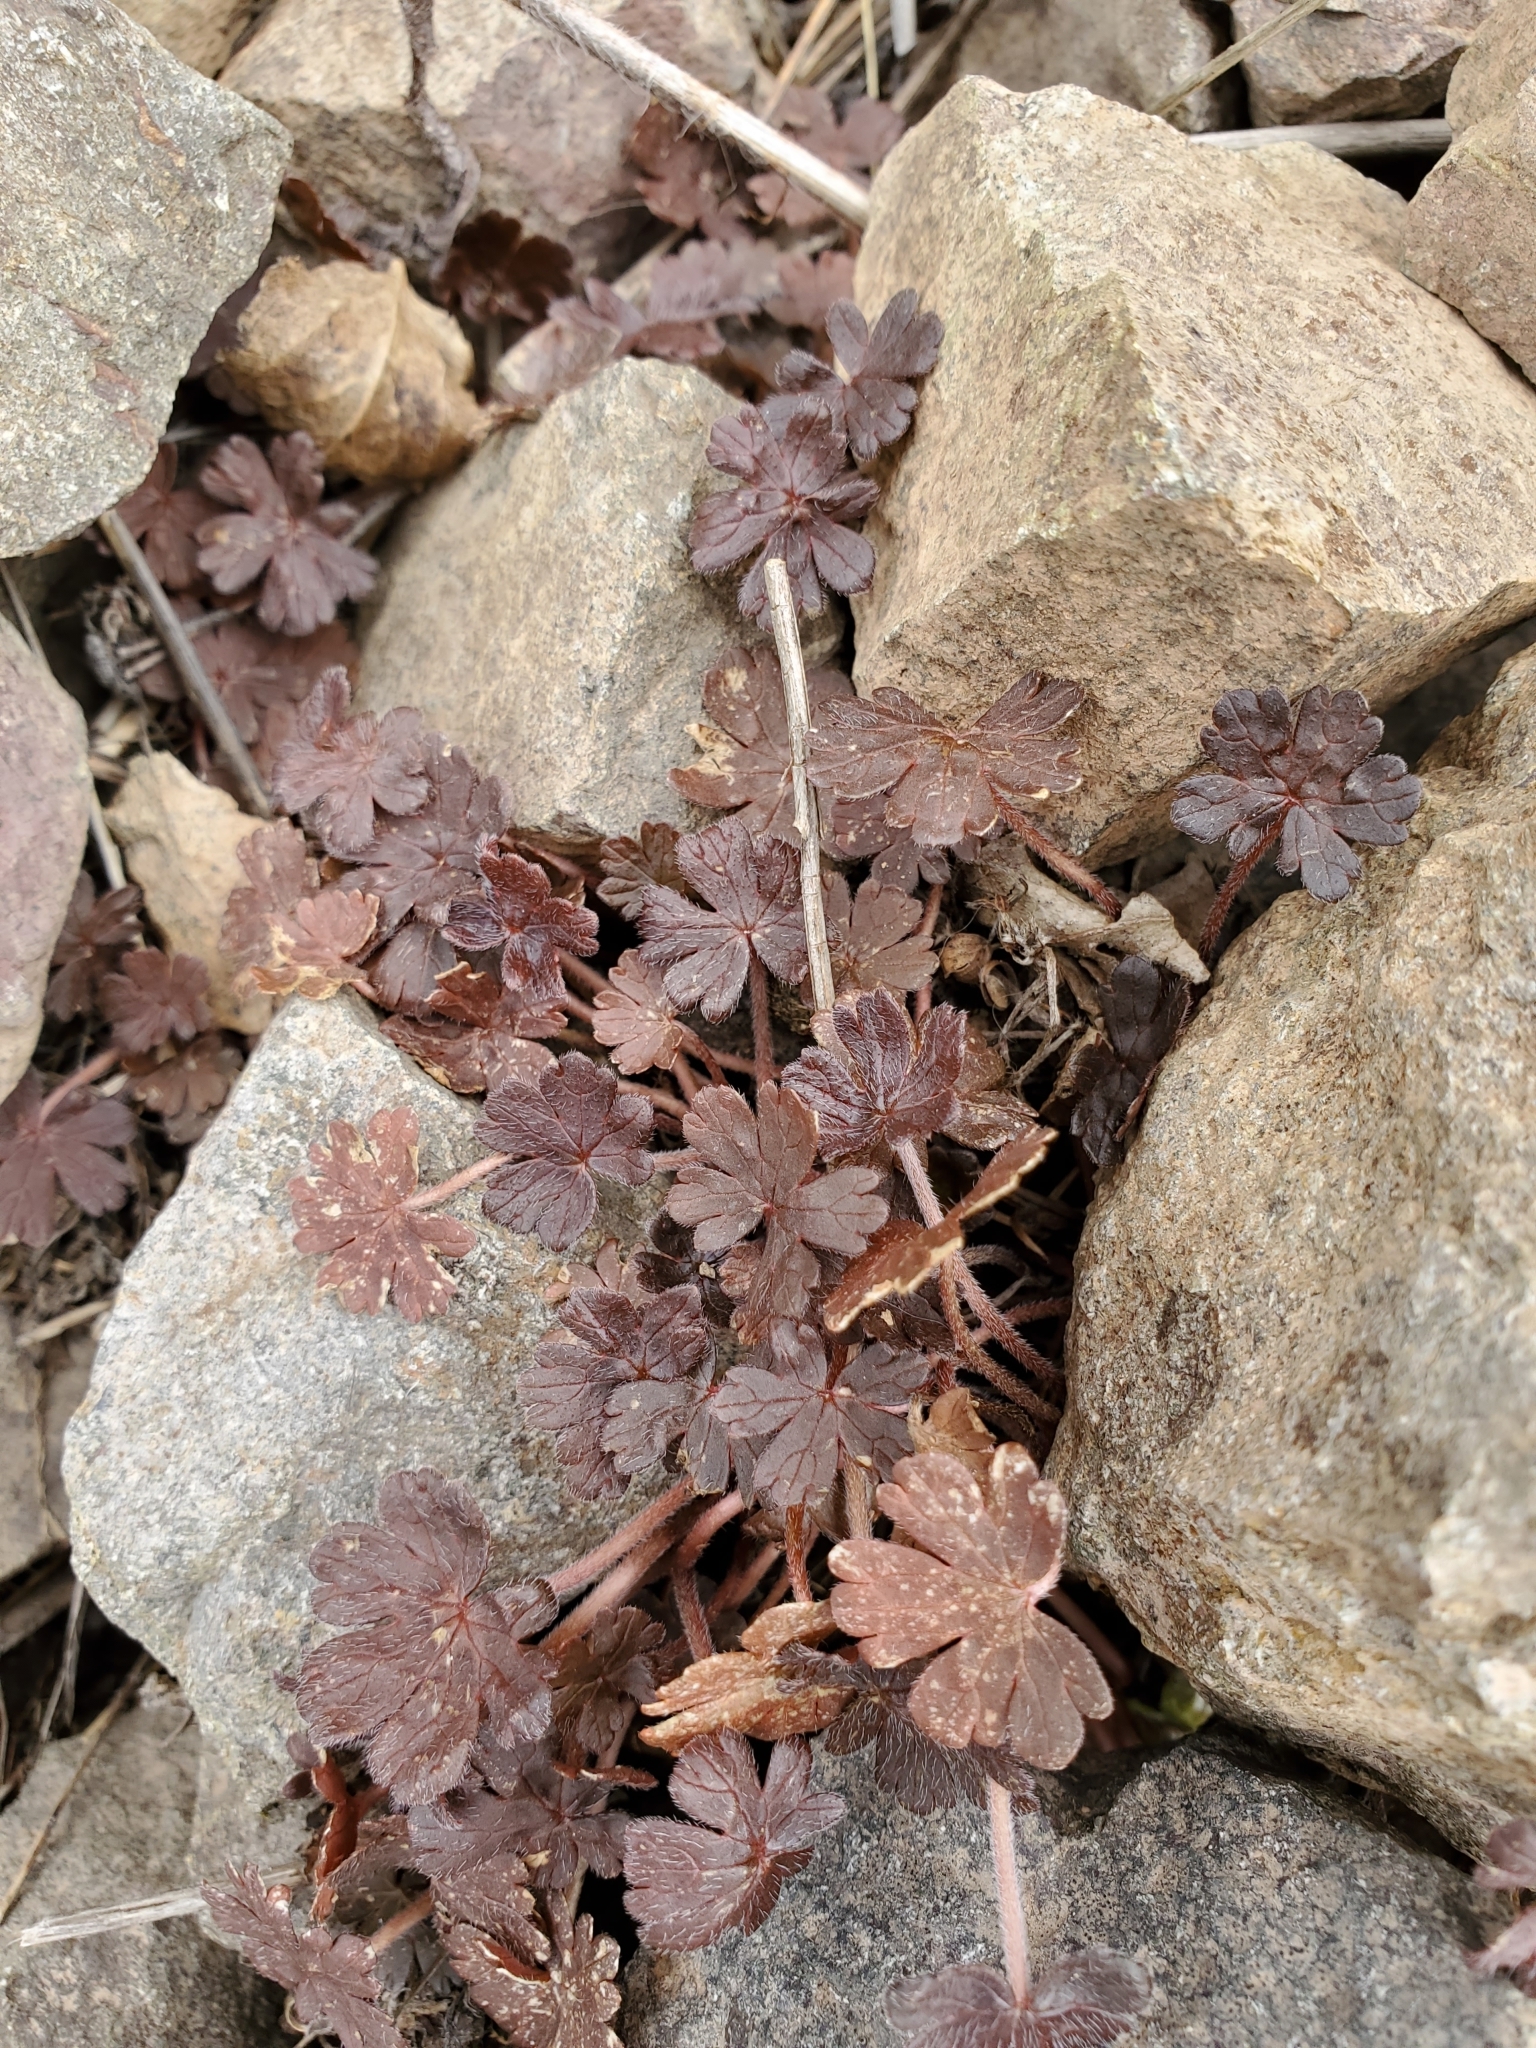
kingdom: Plantae
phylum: Tracheophyta
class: Magnoliopsida
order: Geraniales
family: Geraniaceae
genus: Geranium
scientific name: Geranium brevicaule
